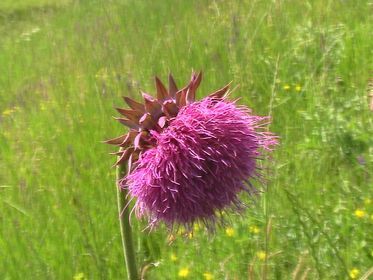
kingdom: Plantae
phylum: Tracheophyta
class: Magnoliopsida
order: Asterales
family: Asteraceae
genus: Carduus
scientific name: Carduus nutans
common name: Musk thistle
